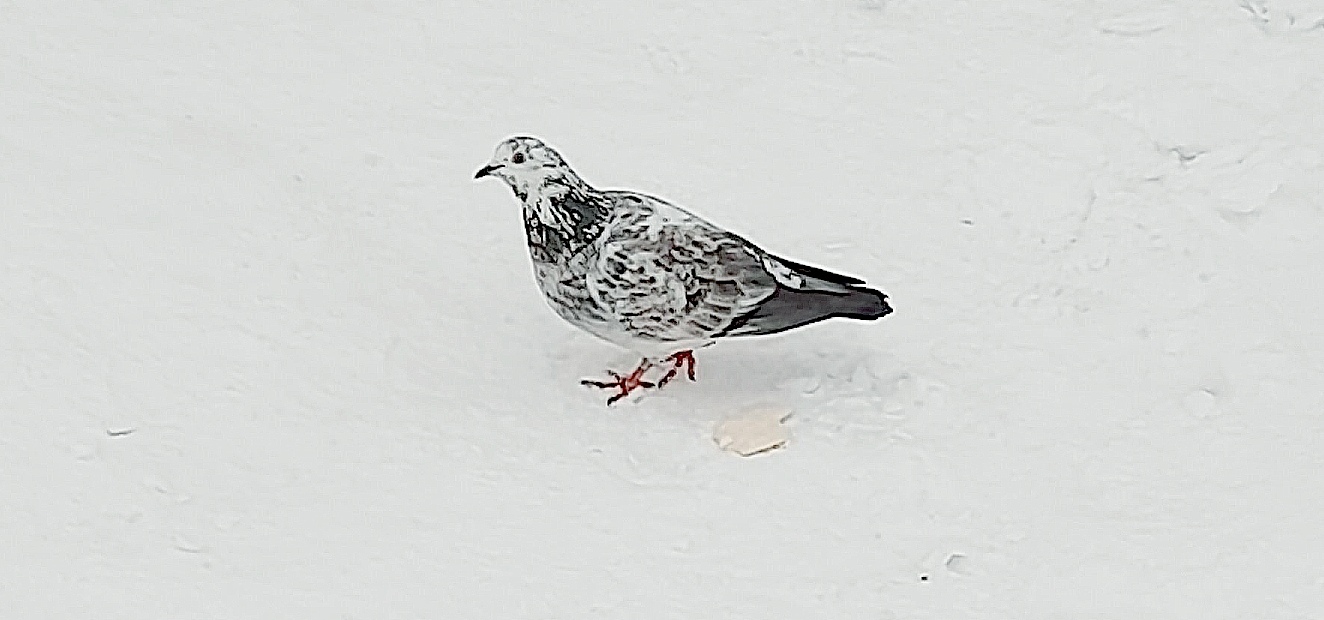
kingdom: Animalia
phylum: Chordata
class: Aves
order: Columbiformes
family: Columbidae
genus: Columba
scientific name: Columba livia
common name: Rock pigeon
